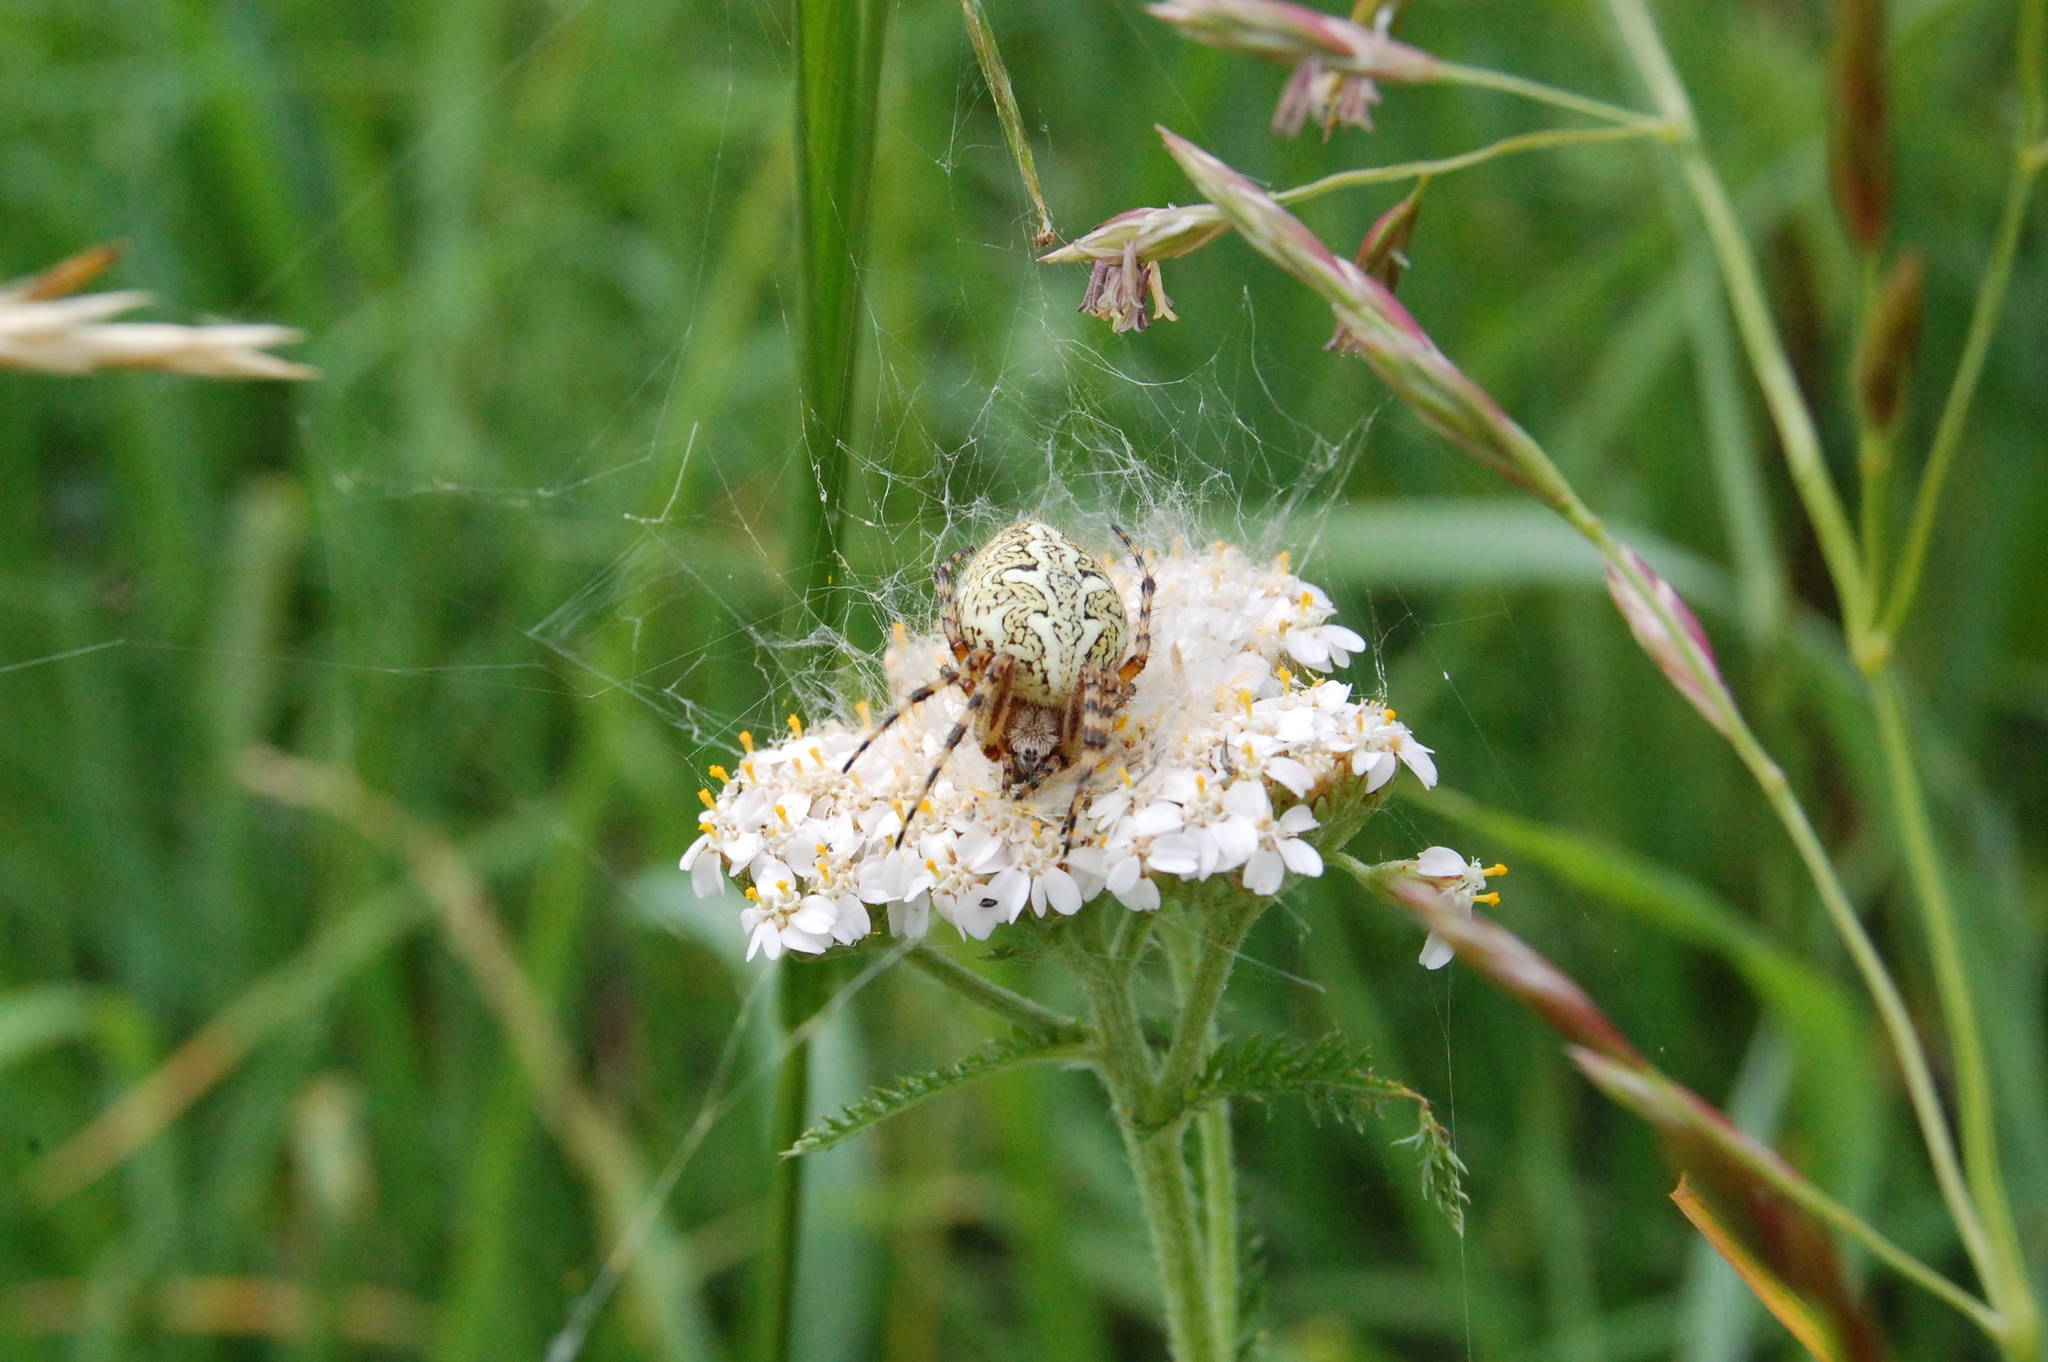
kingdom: Animalia
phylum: Arthropoda
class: Arachnida
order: Araneae
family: Araneidae
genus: Aculepeira
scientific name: Aculepeira ceropegia
